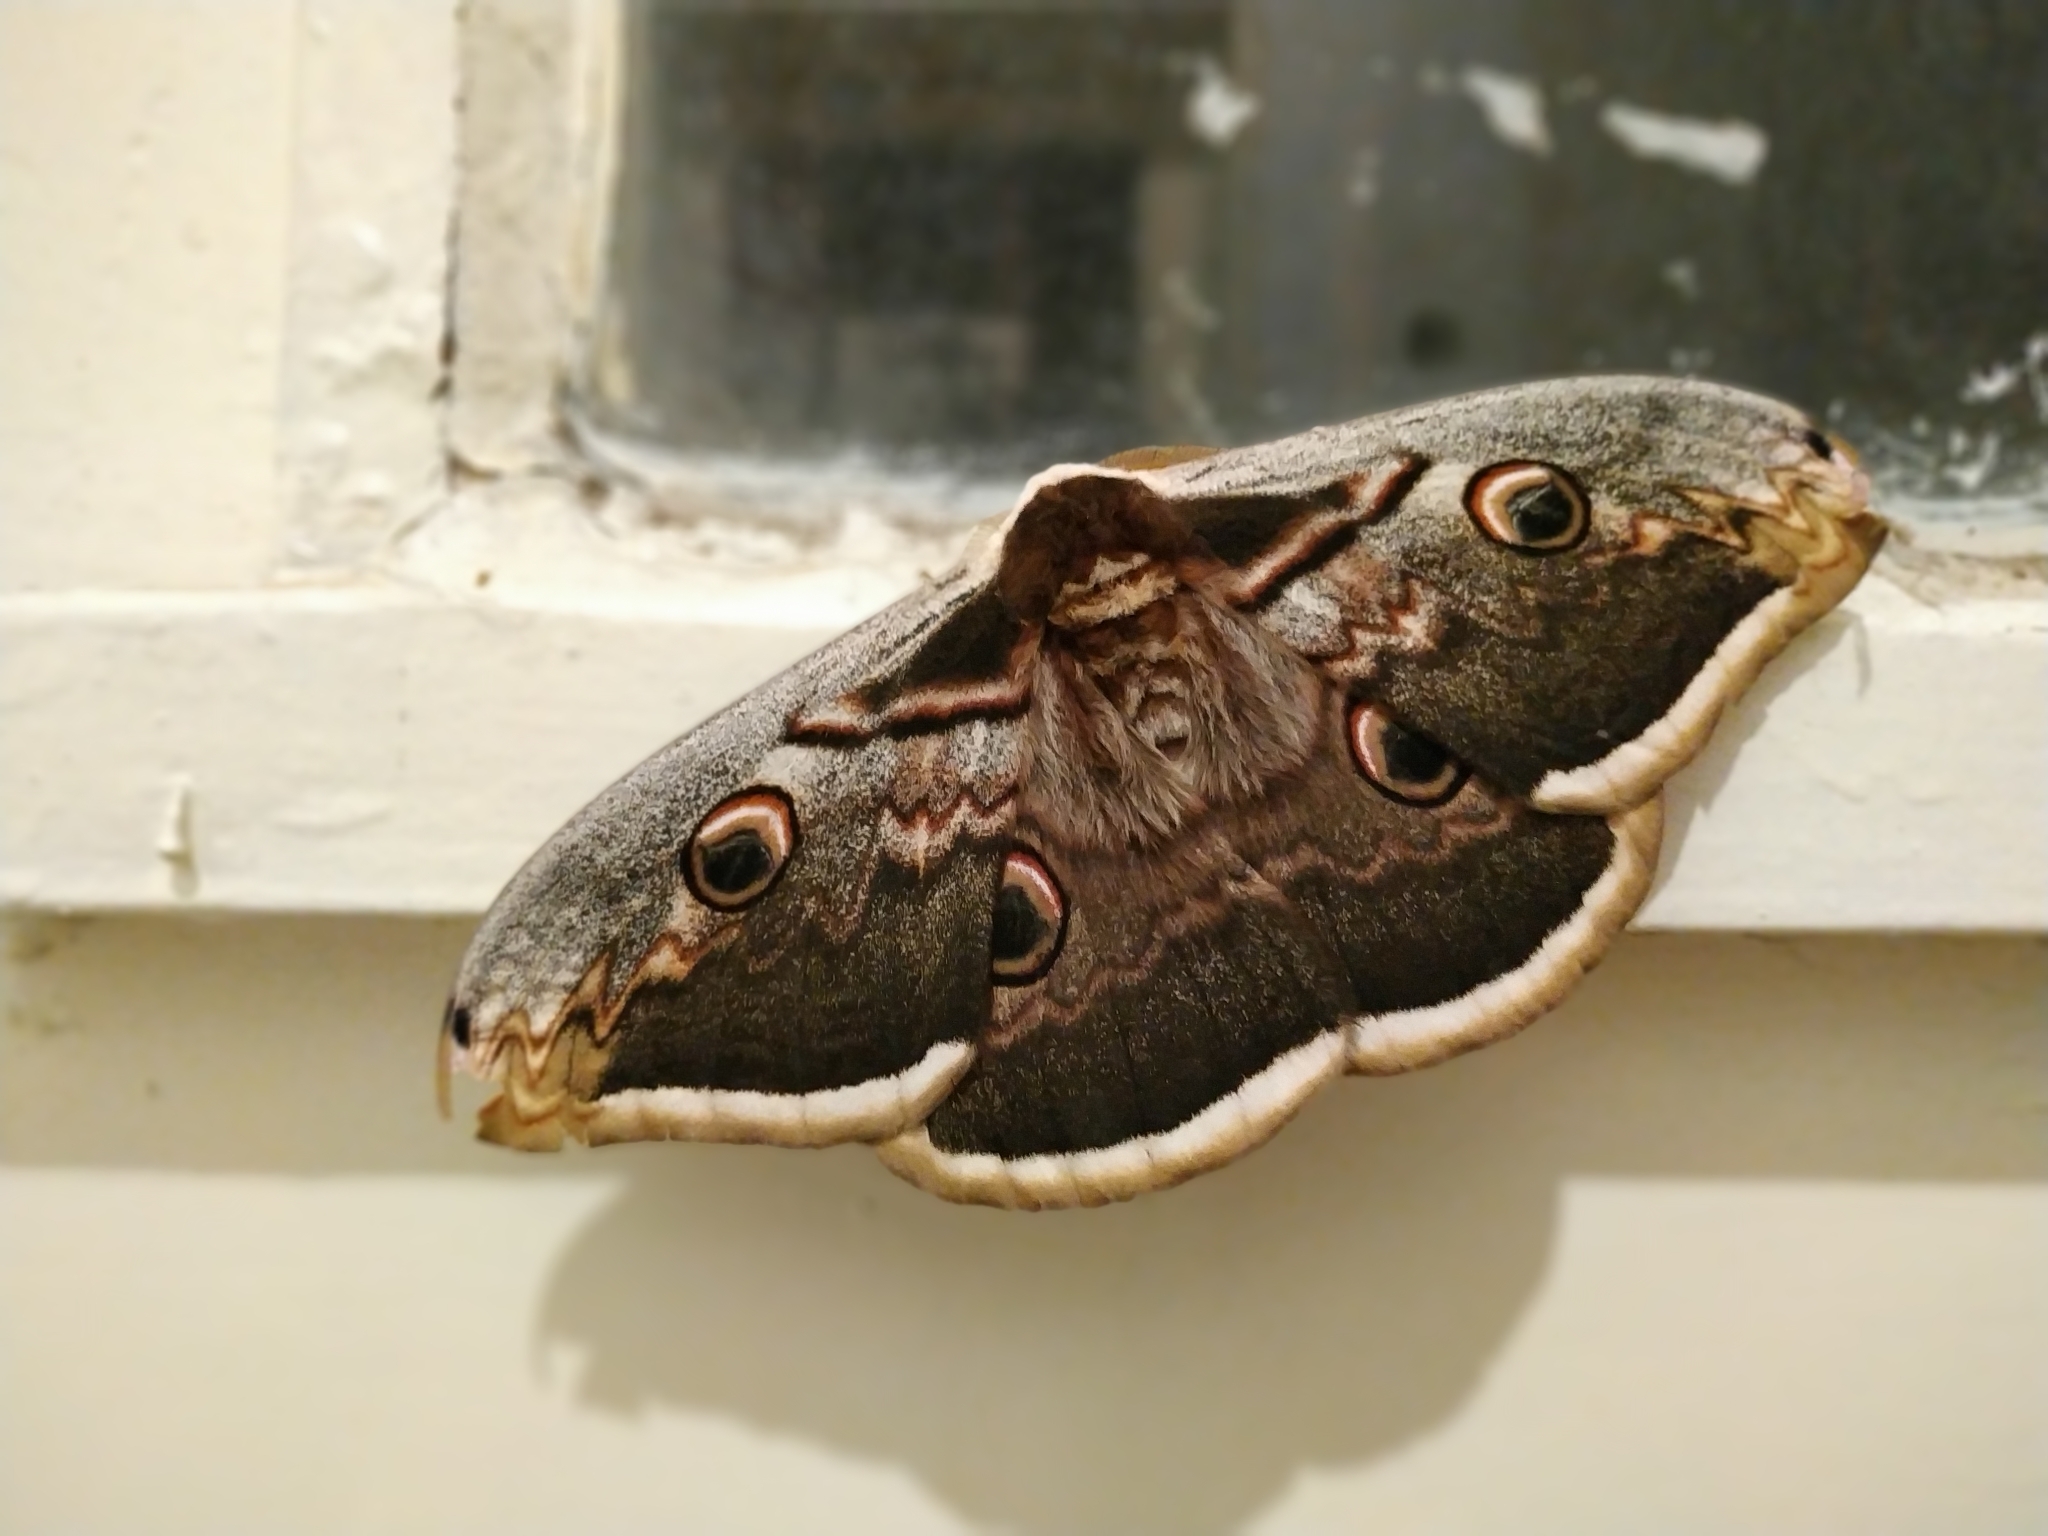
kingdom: Animalia
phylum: Arthropoda
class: Insecta
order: Lepidoptera
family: Saturniidae
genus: Saturnia
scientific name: Saturnia pyri
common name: Great peacock moth
